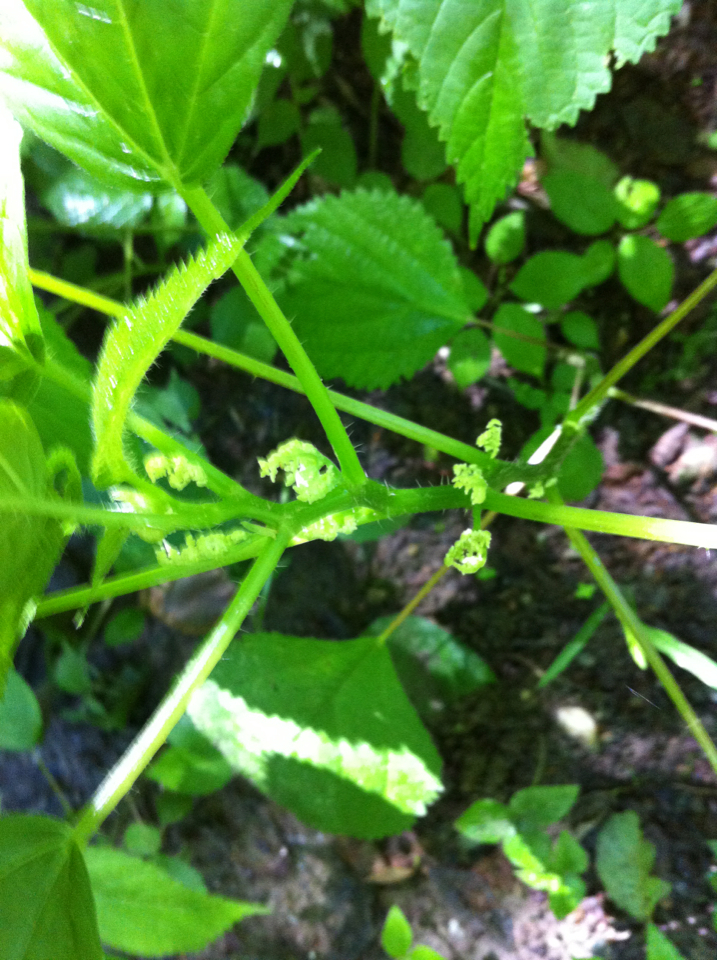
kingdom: Plantae
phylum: Tracheophyta
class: Magnoliopsida
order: Rosales
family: Urticaceae
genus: Laportea
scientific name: Laportea canadensis
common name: Canada nettle
